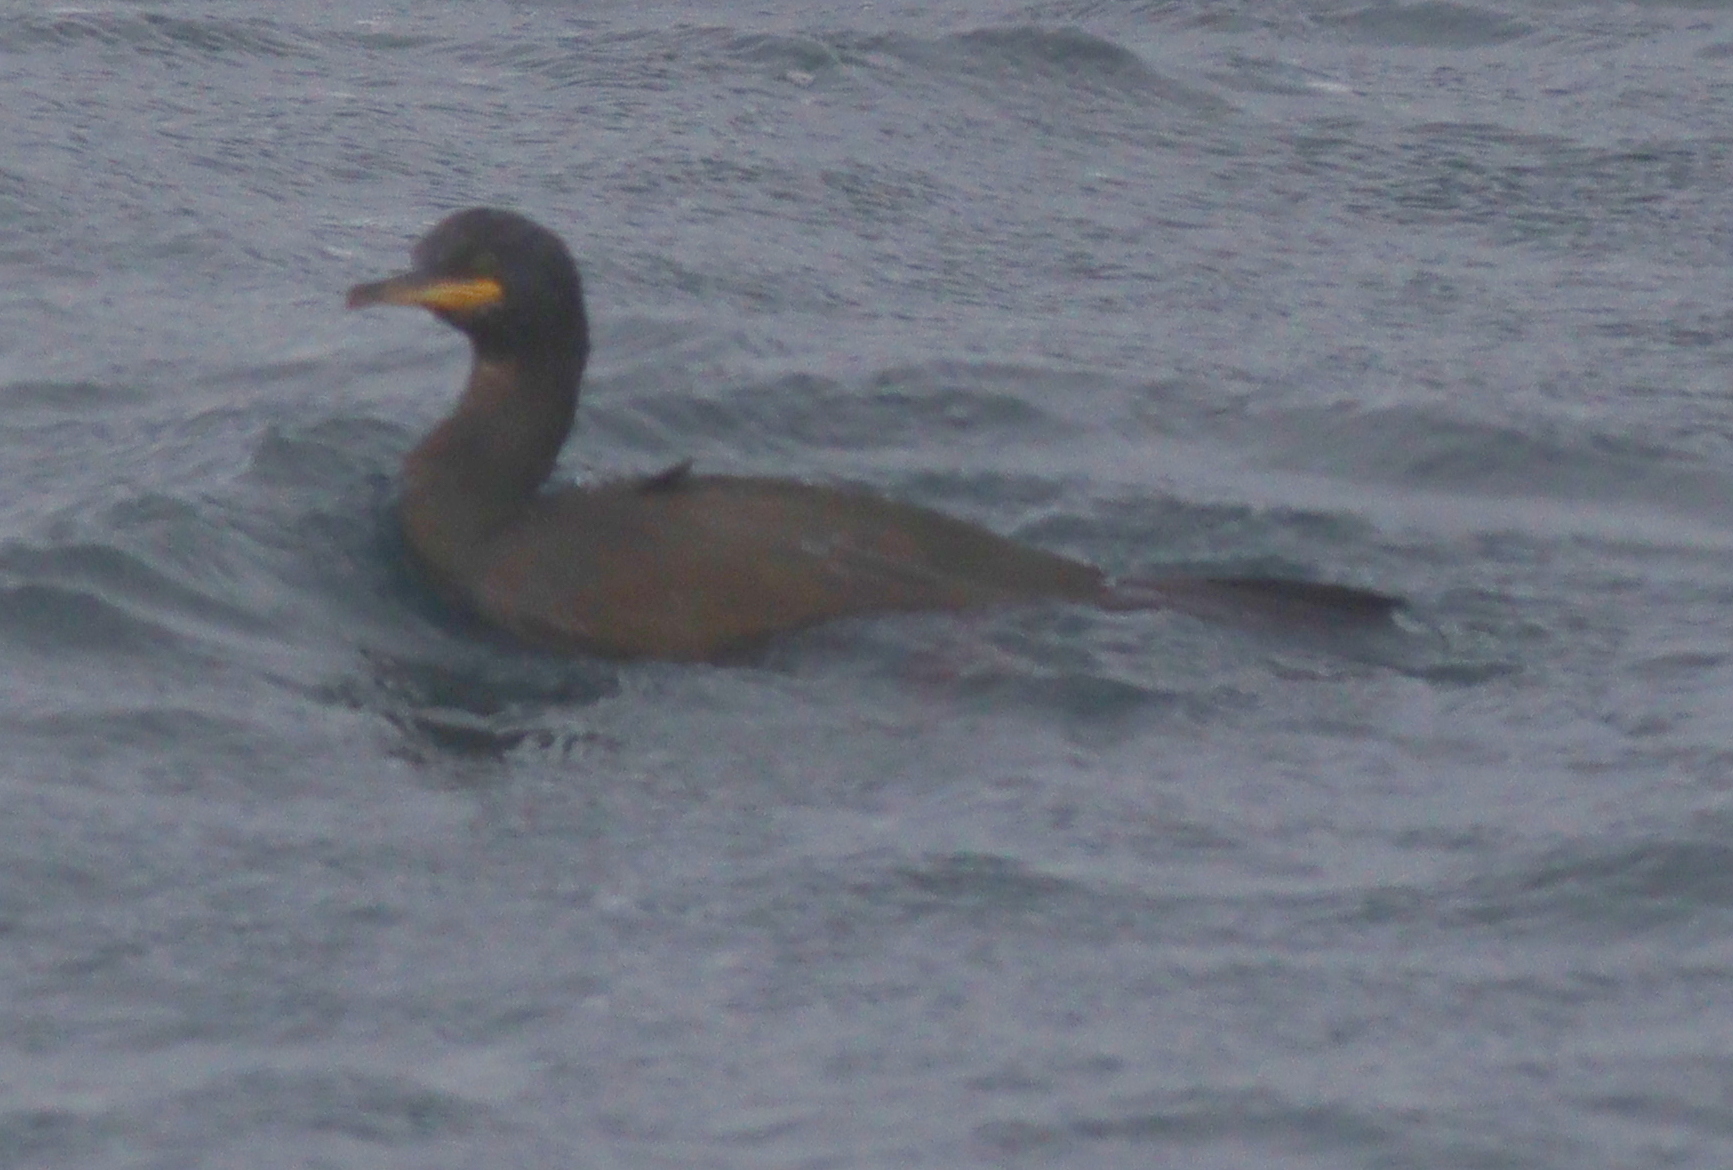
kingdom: Animalia
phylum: Chordata
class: Aves
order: Suliformes
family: Phalacrocoracidae
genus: Phalacrocorax
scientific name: Phalacrocorax aristotelis
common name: European shag
